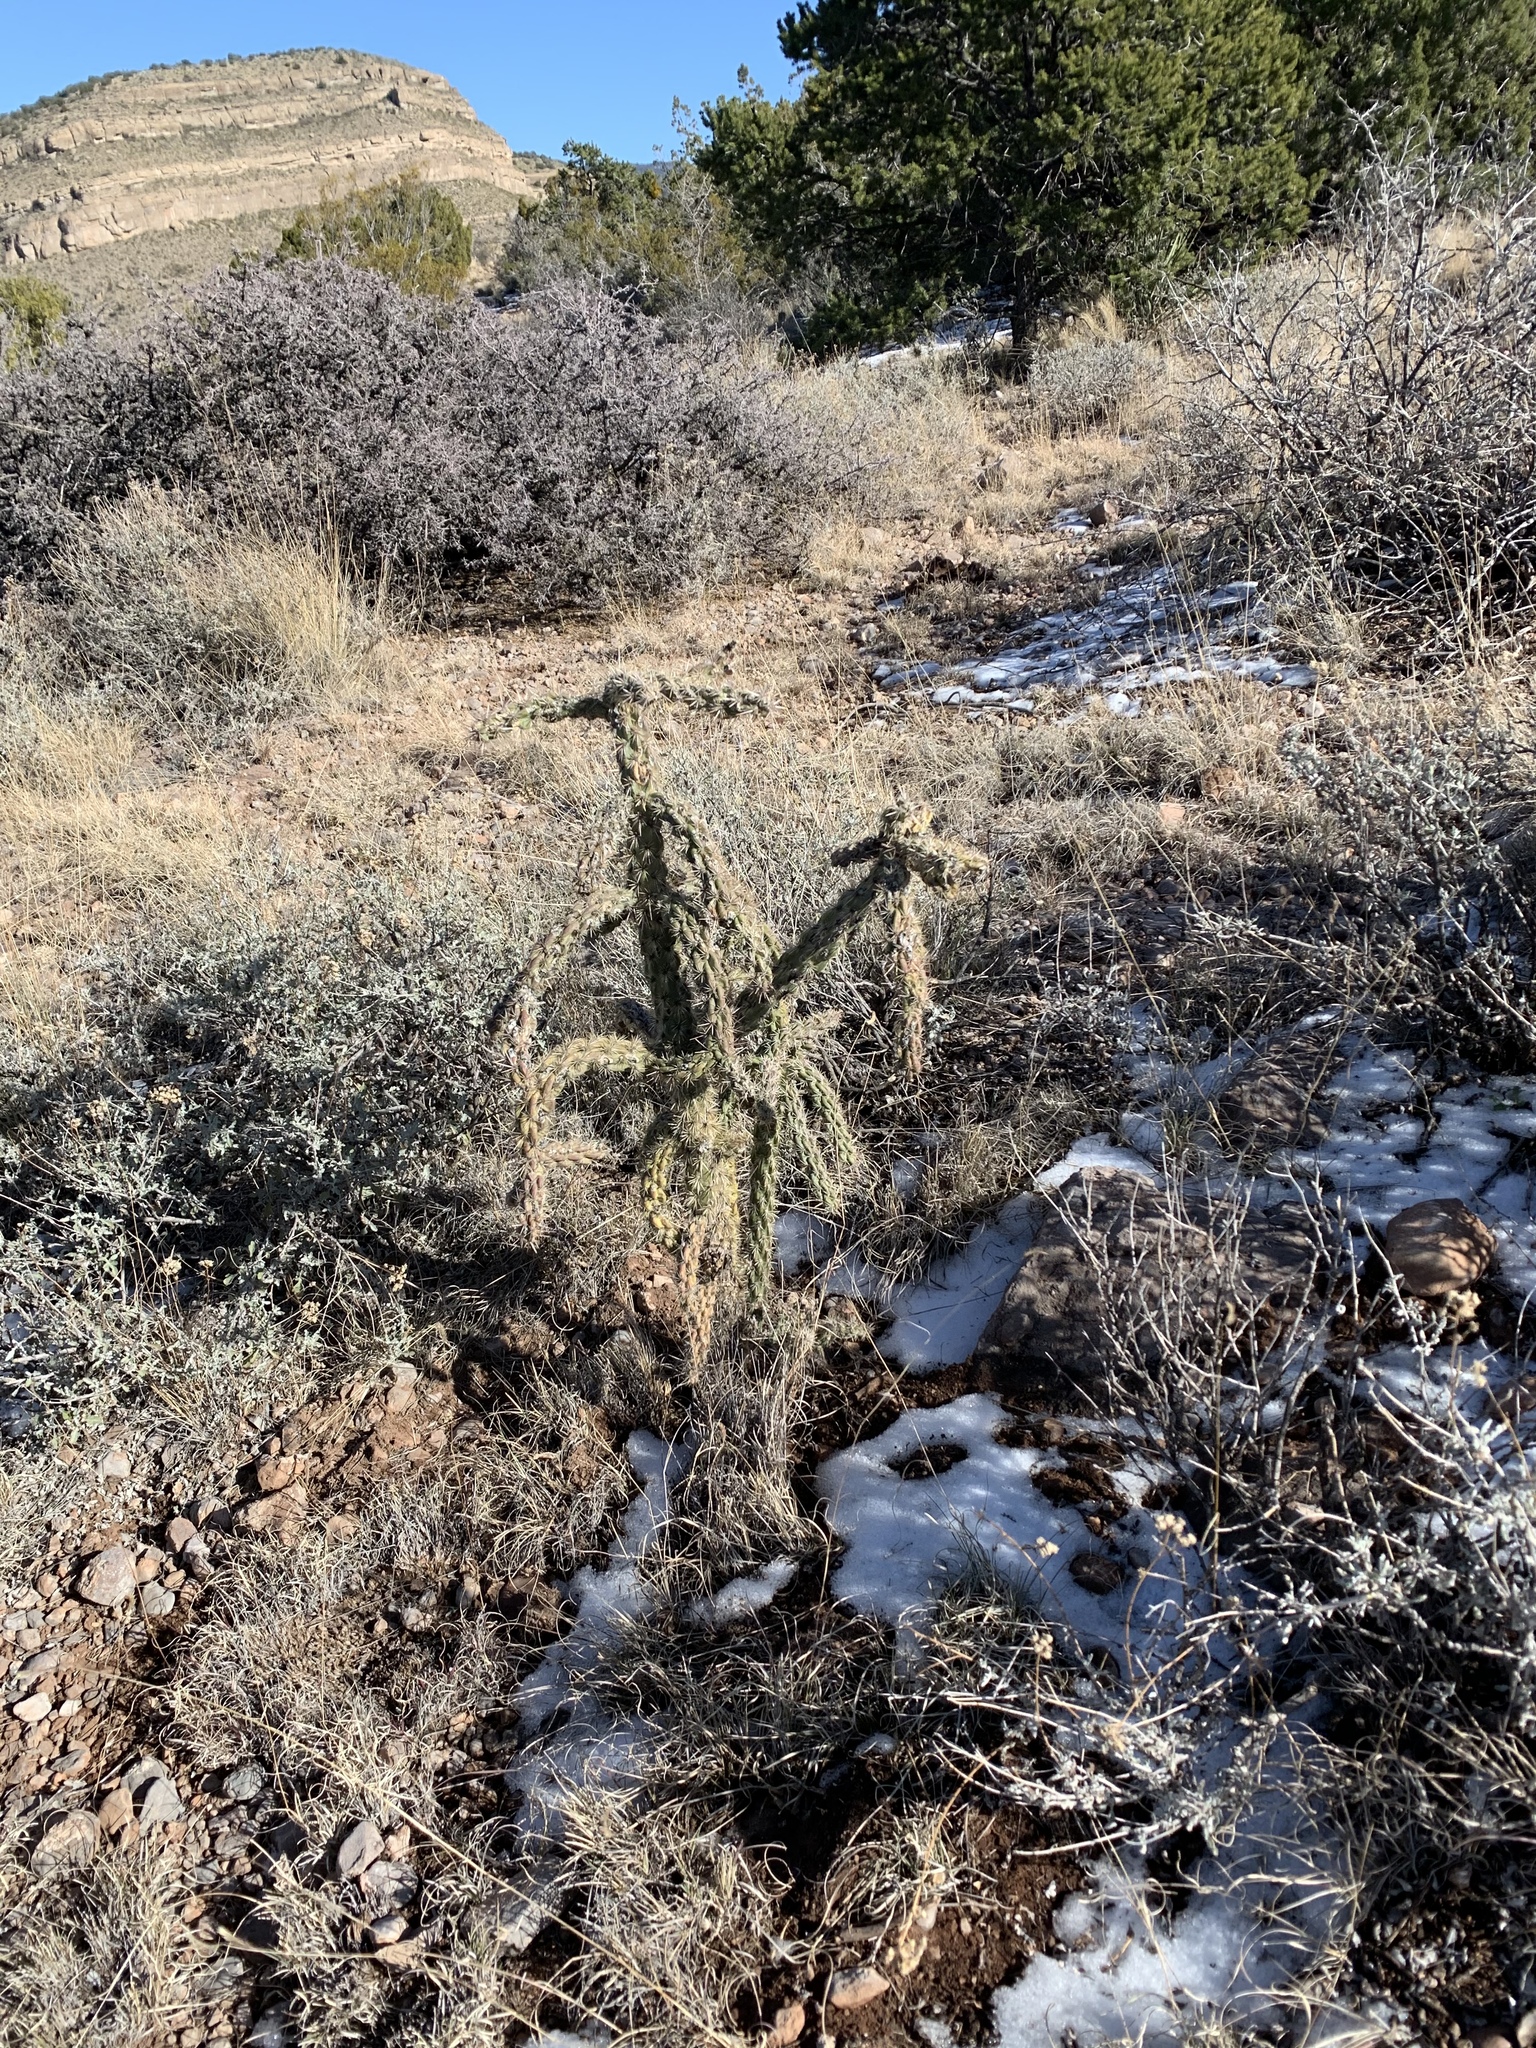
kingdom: Plantae
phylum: Tracheophyta
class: Magnoliopsida
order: Caryophyllales
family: Cactaceae
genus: Cylindropuntia
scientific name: Cylindropuntia imbricata
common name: Candelabrum cactus
